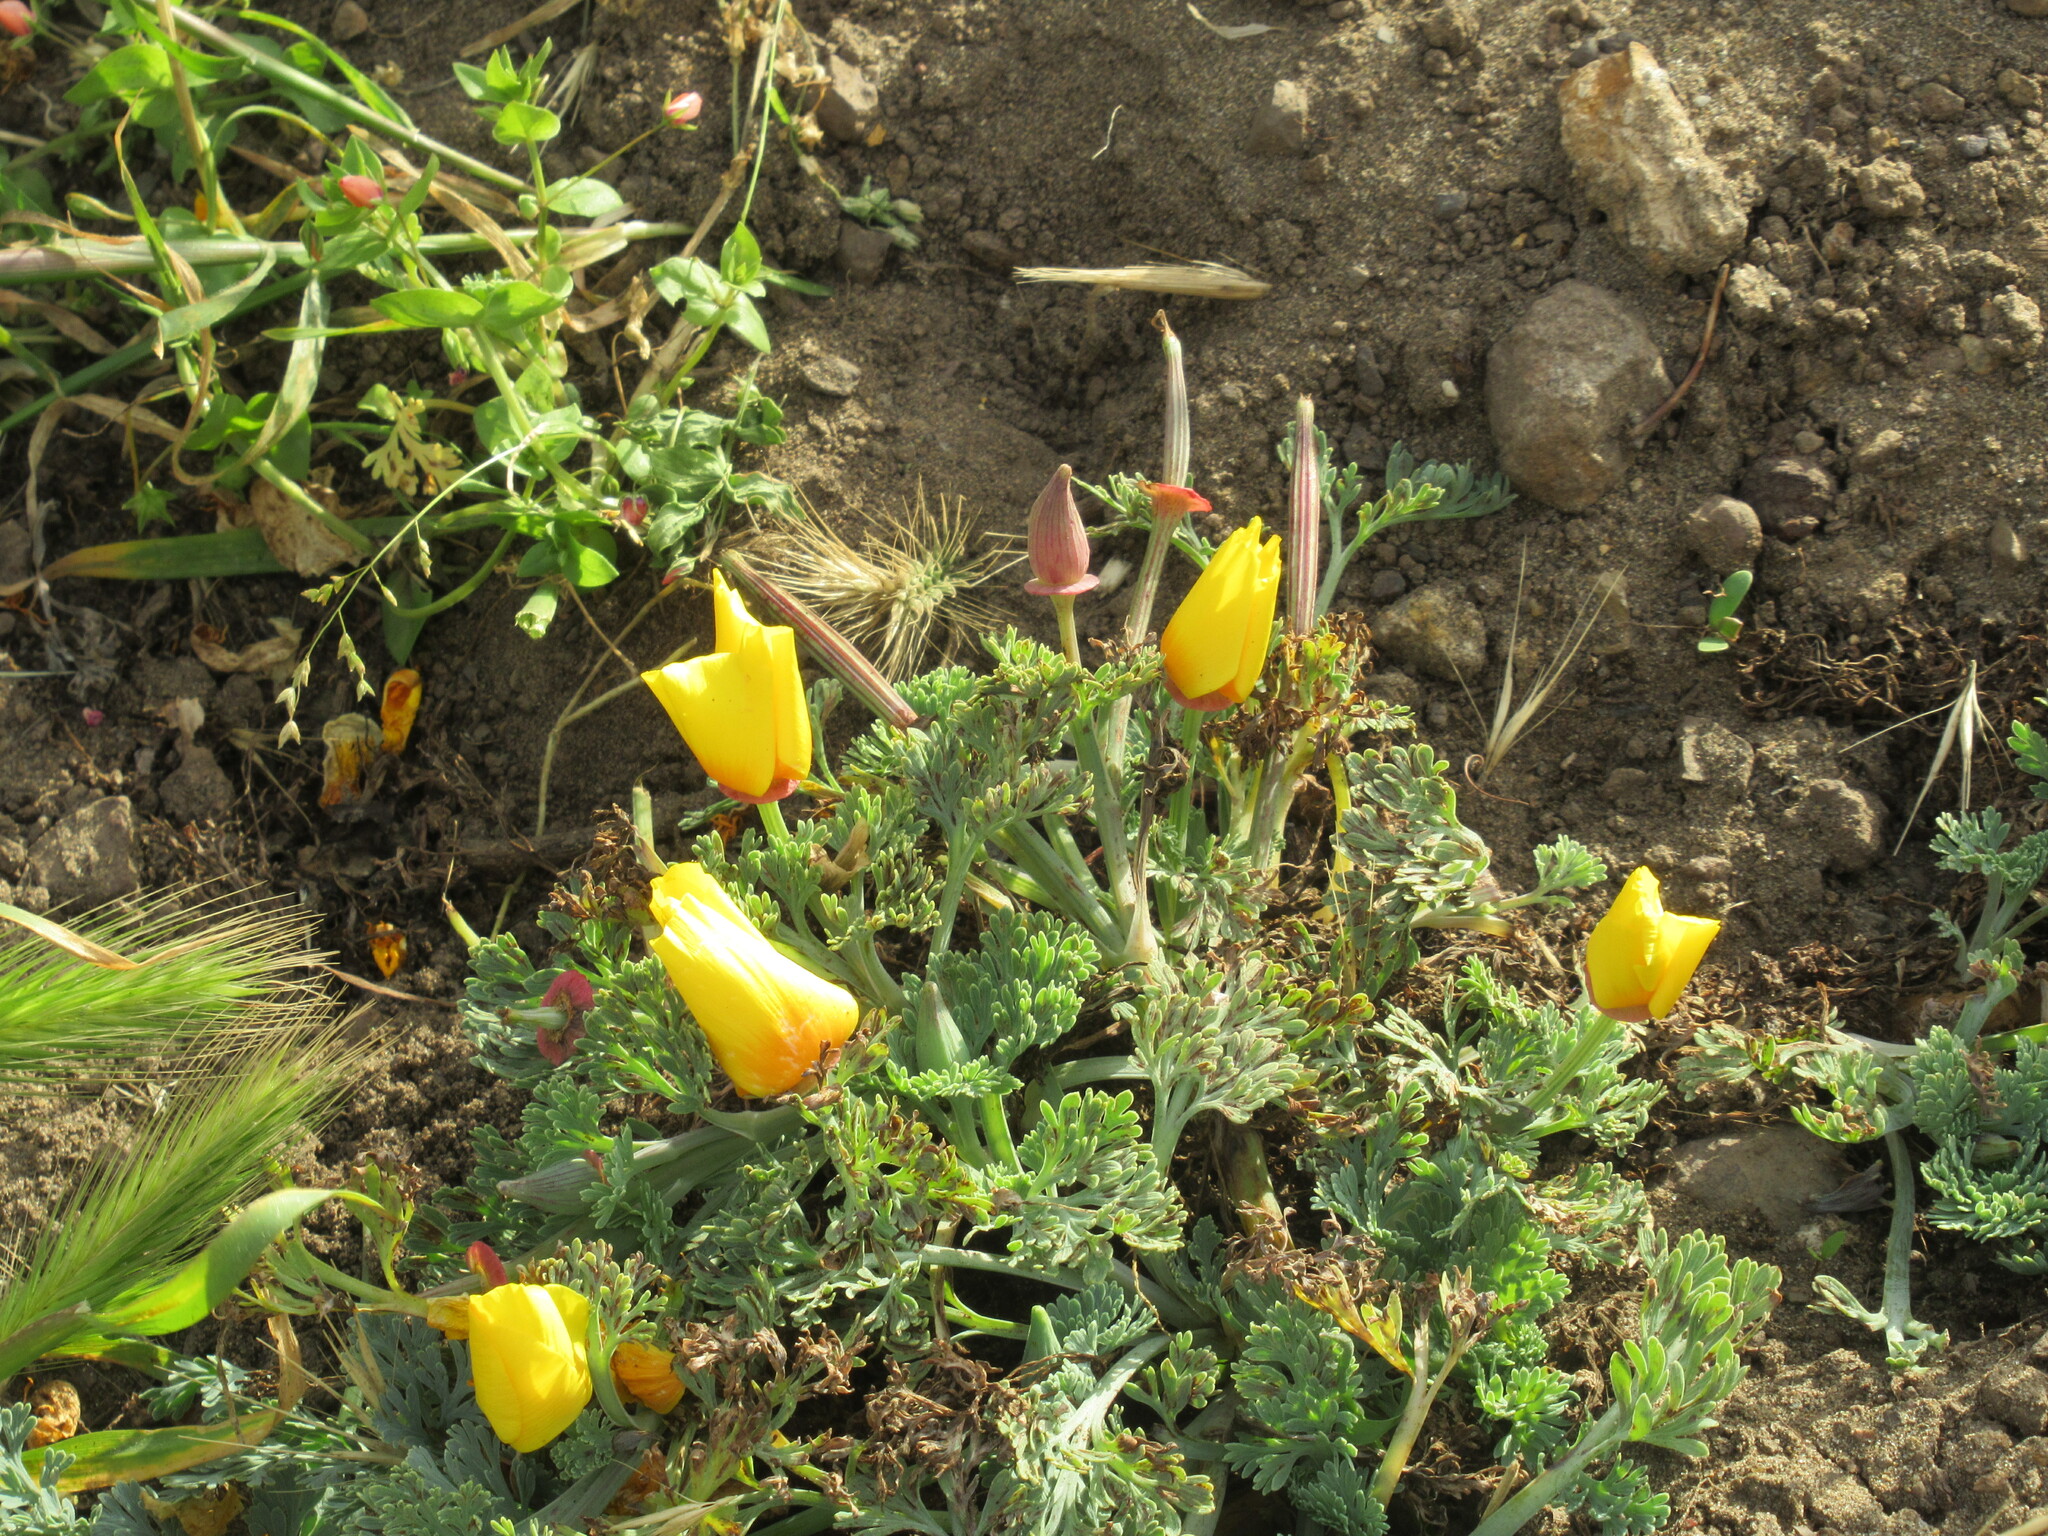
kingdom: Plantae
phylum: Tracheophyta
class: Magnoliopsida
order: Ranunculales
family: Papaveraceae
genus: Eschscholzia
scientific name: Eschscholzia californica
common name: California poppy
